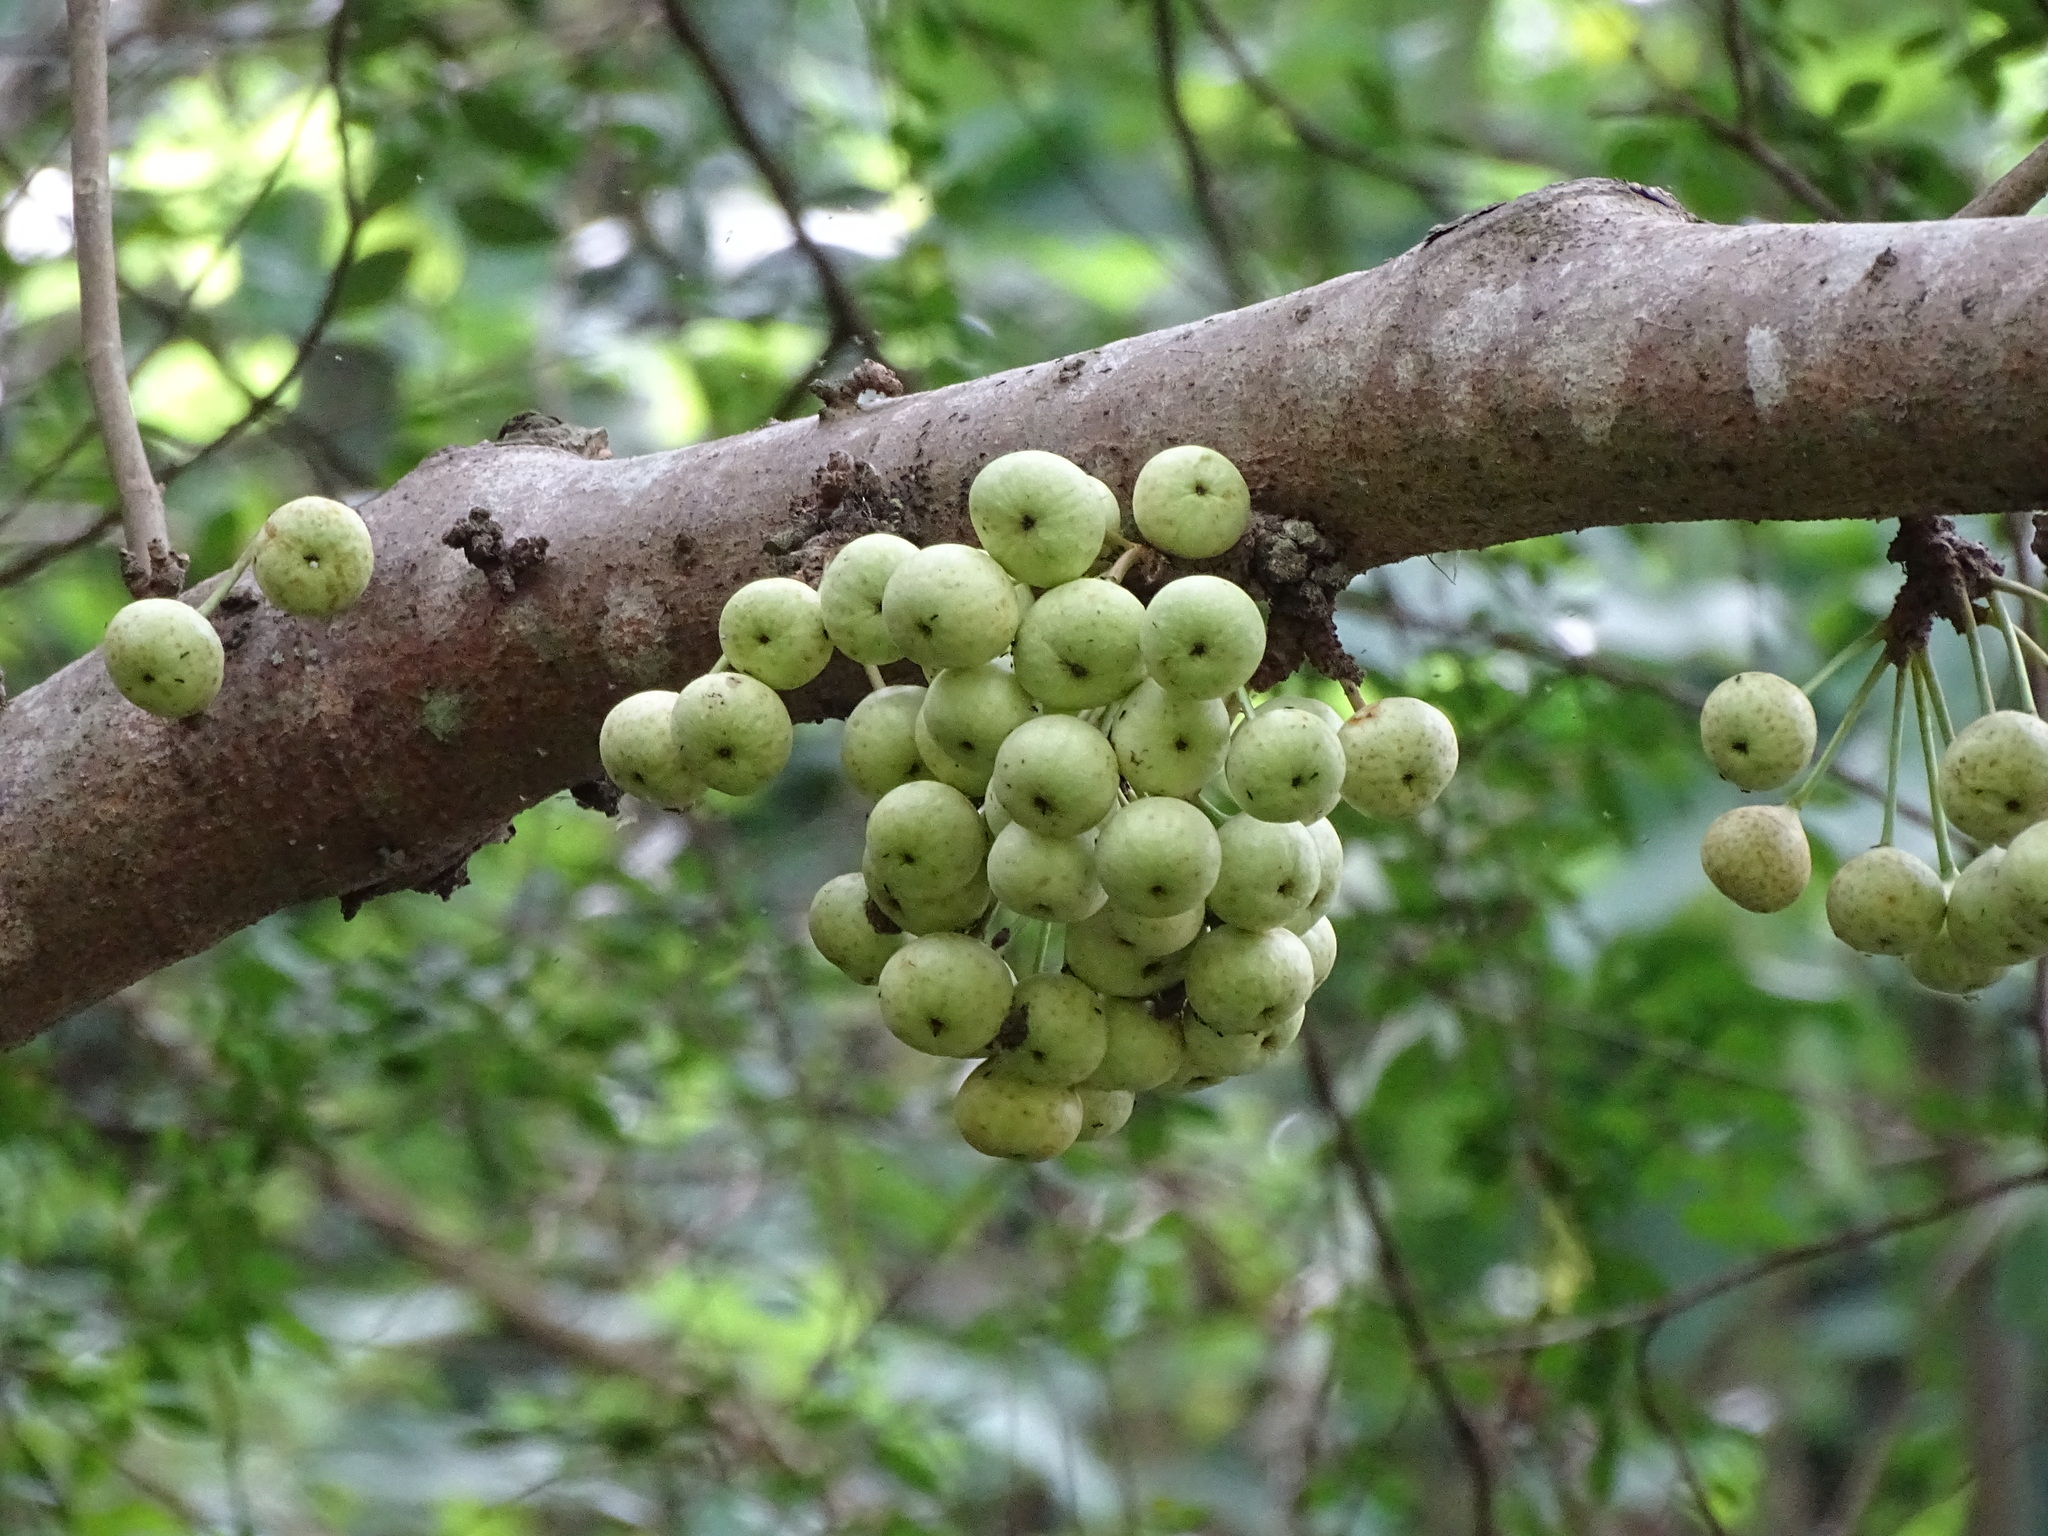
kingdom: Plantae
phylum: Tracheophyta
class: Magnoliopsida
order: Rosales
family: Moraceae
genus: Ficus
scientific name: Ficus variegata
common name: Variegated fig
